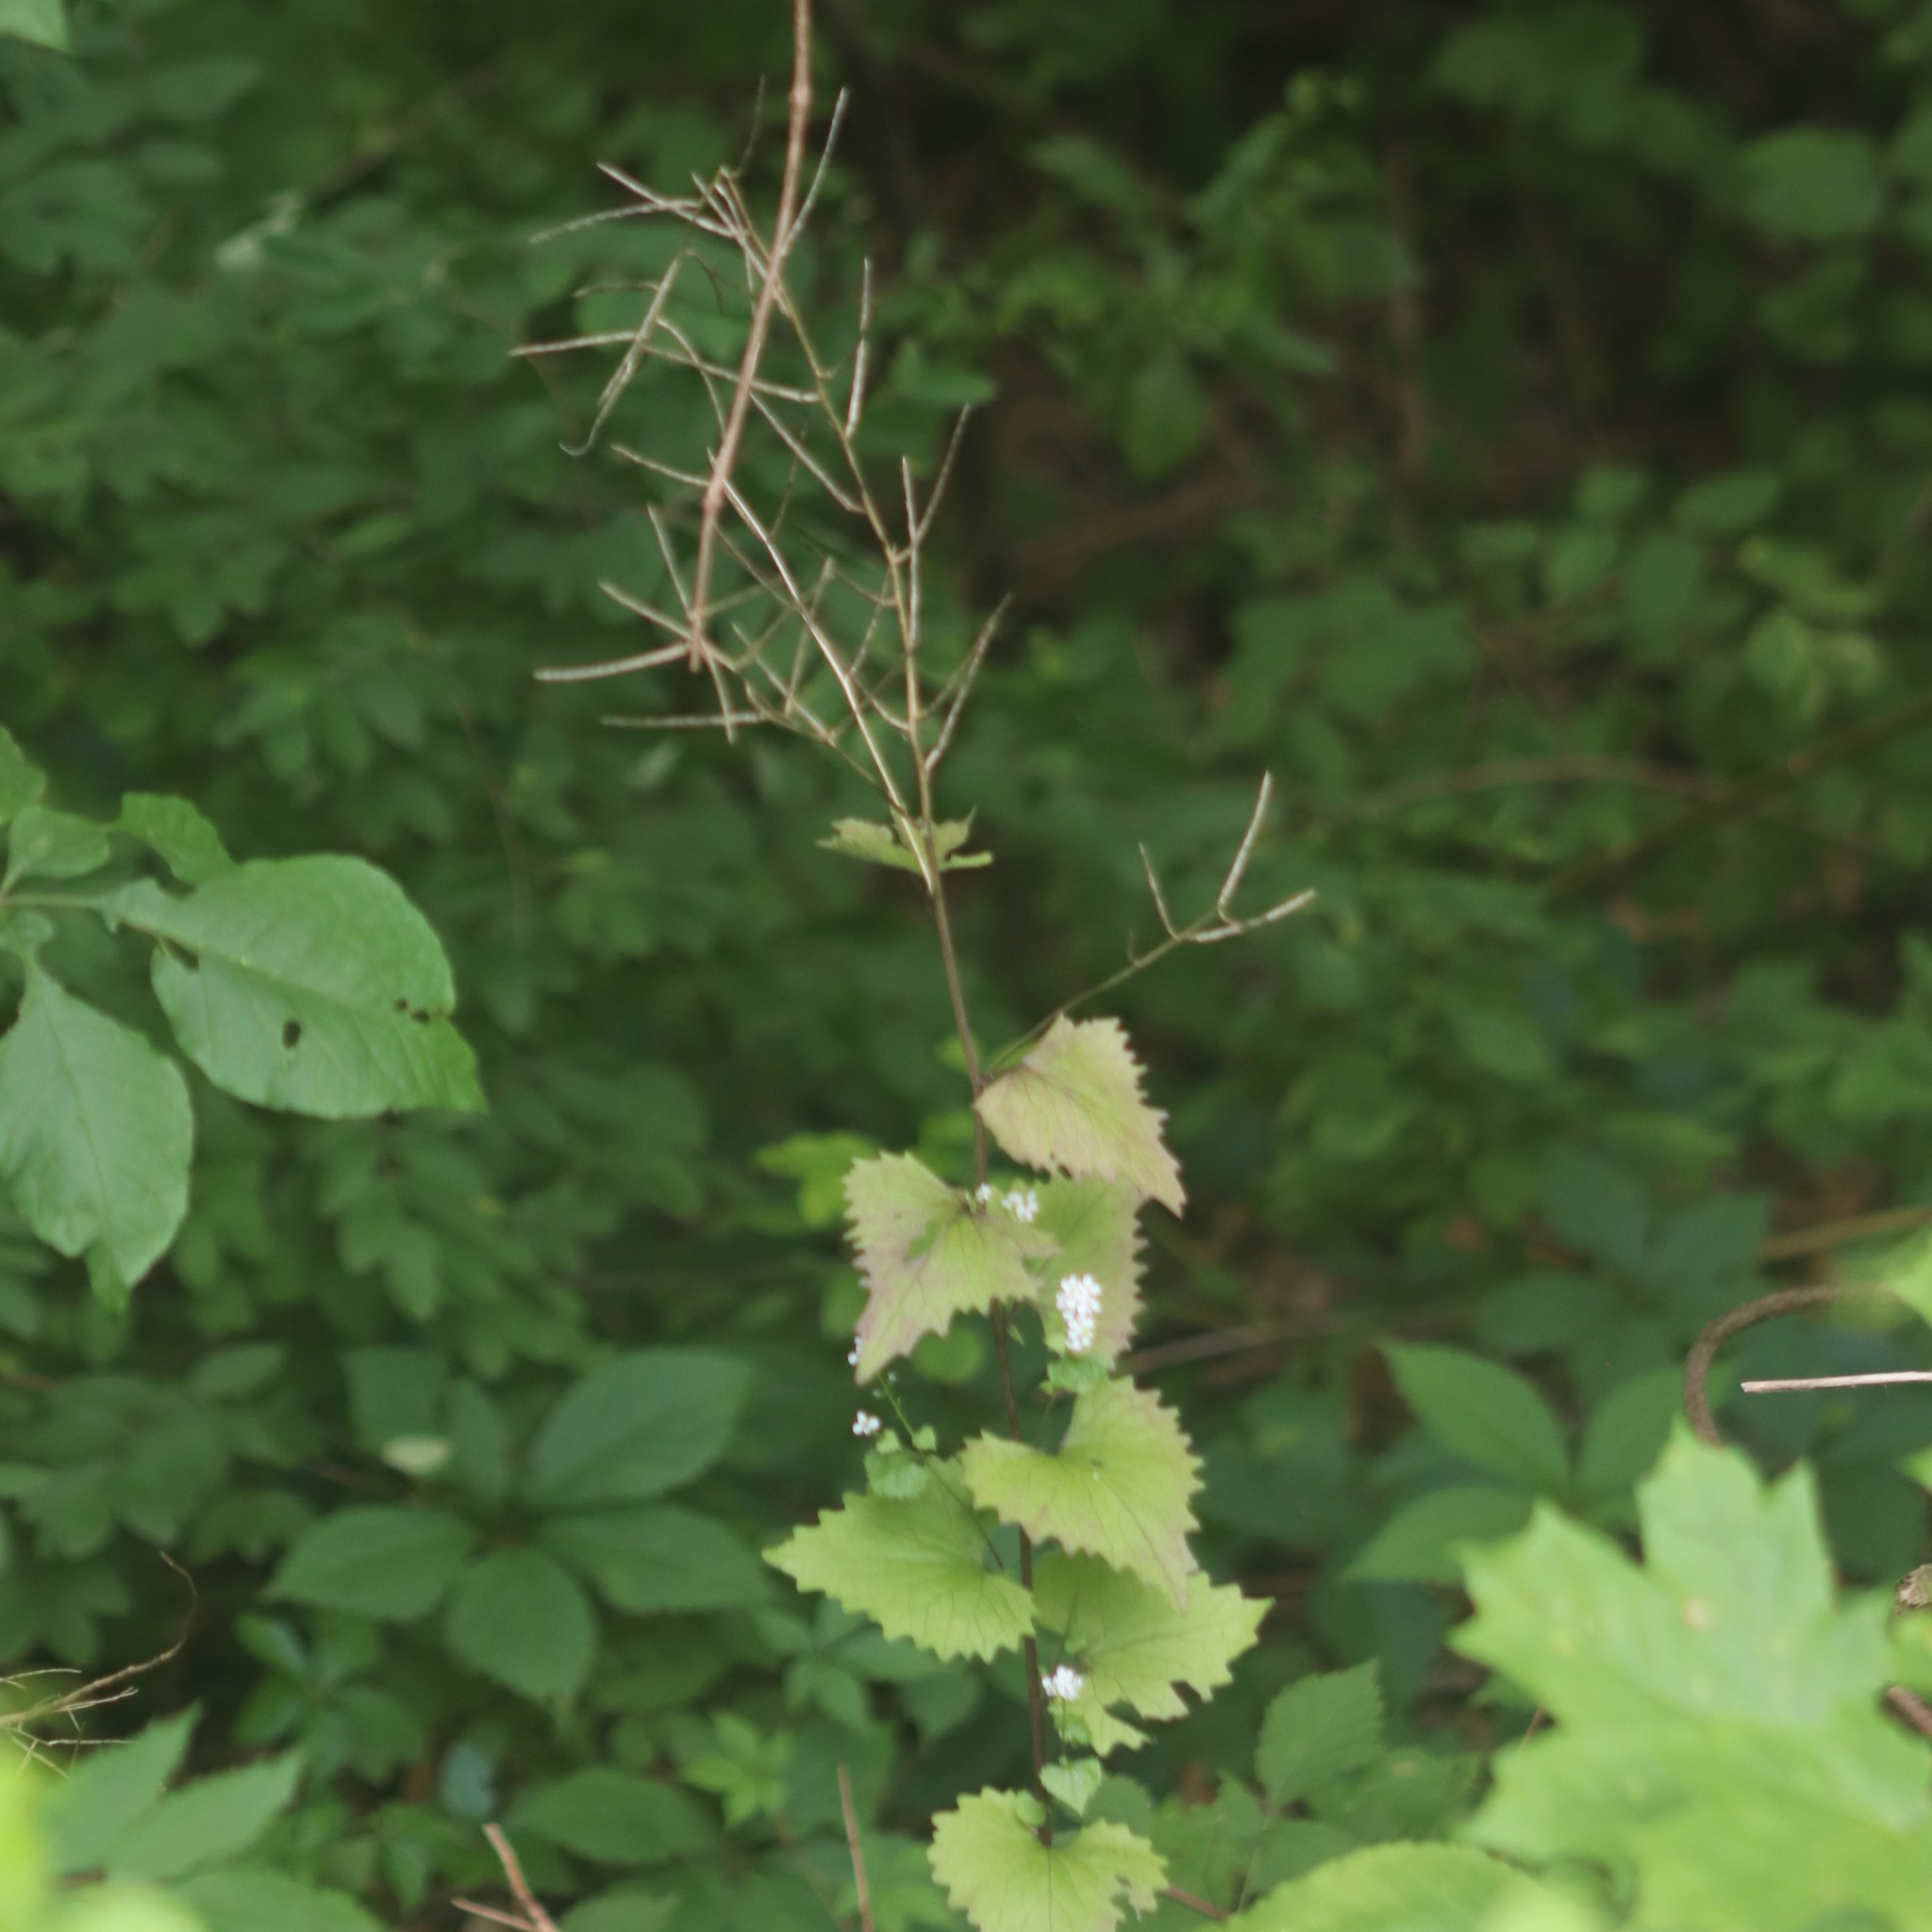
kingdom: Plantae
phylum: Tracheophyta
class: Magnoliopsida
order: Brassicales
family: Brassicaceae
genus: Alliaria
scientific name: Alliaria petiolata
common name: Garlic mustard
